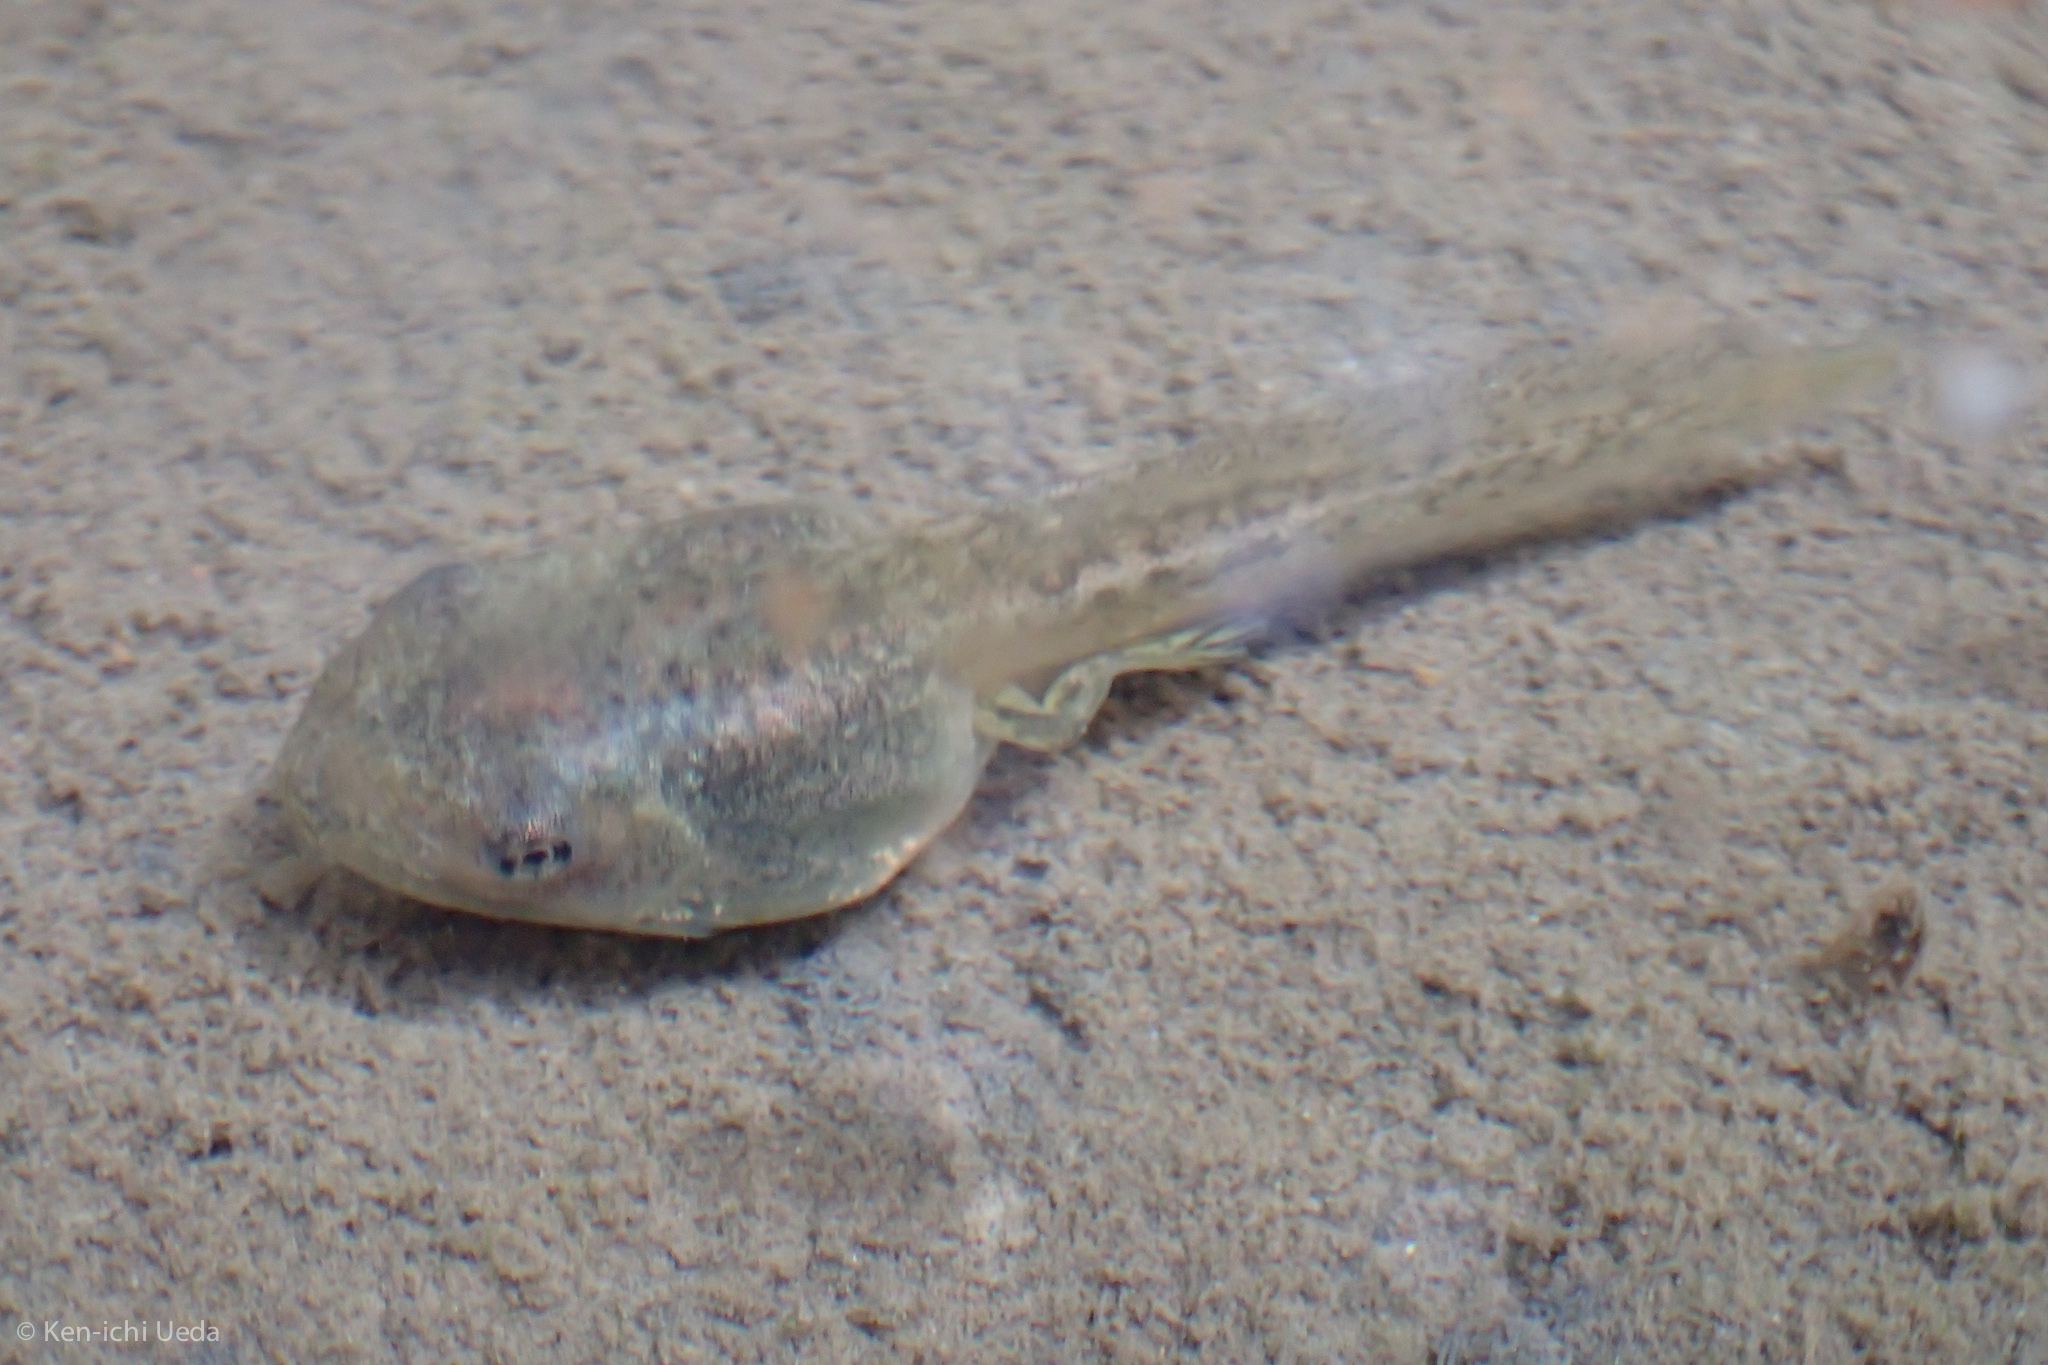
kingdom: Animalia
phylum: Chordata
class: Amphibia
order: Anura
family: Hylidae
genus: Pseudacris
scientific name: Pseudacris regilla
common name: Pacific chorus frog
